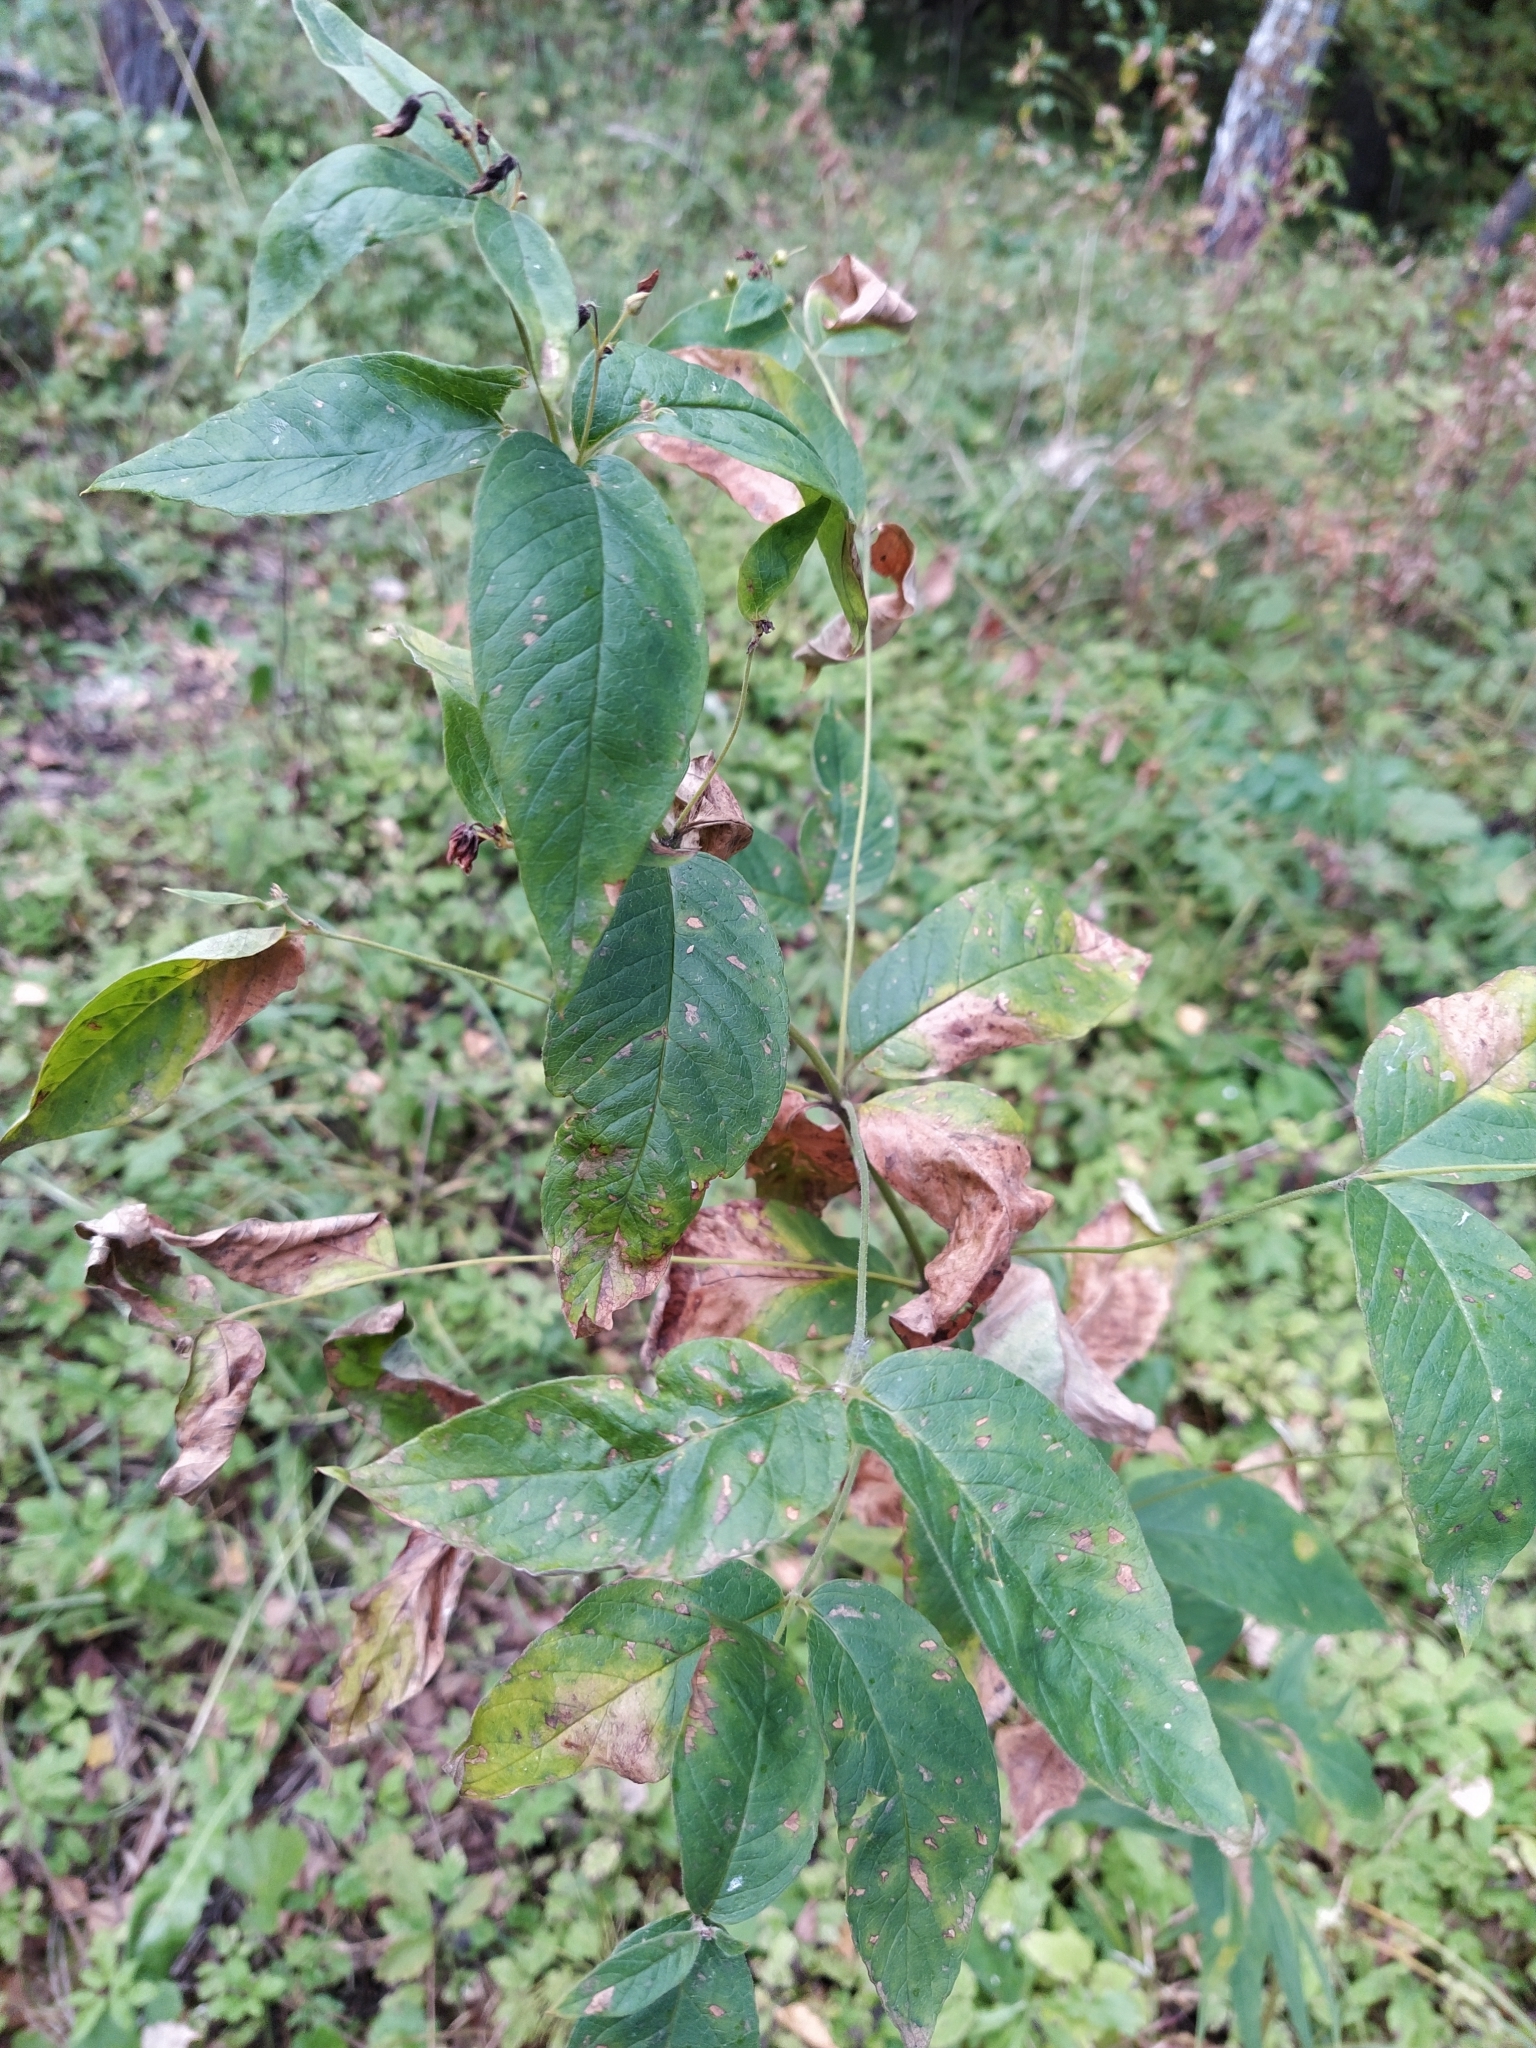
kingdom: Plantae
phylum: Tracheophyta
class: Magnoliopsida
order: Ericales
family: Primulaceae
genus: Lysimachia
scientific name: Lysimachia vulgaris
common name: Yellow loosestrife
